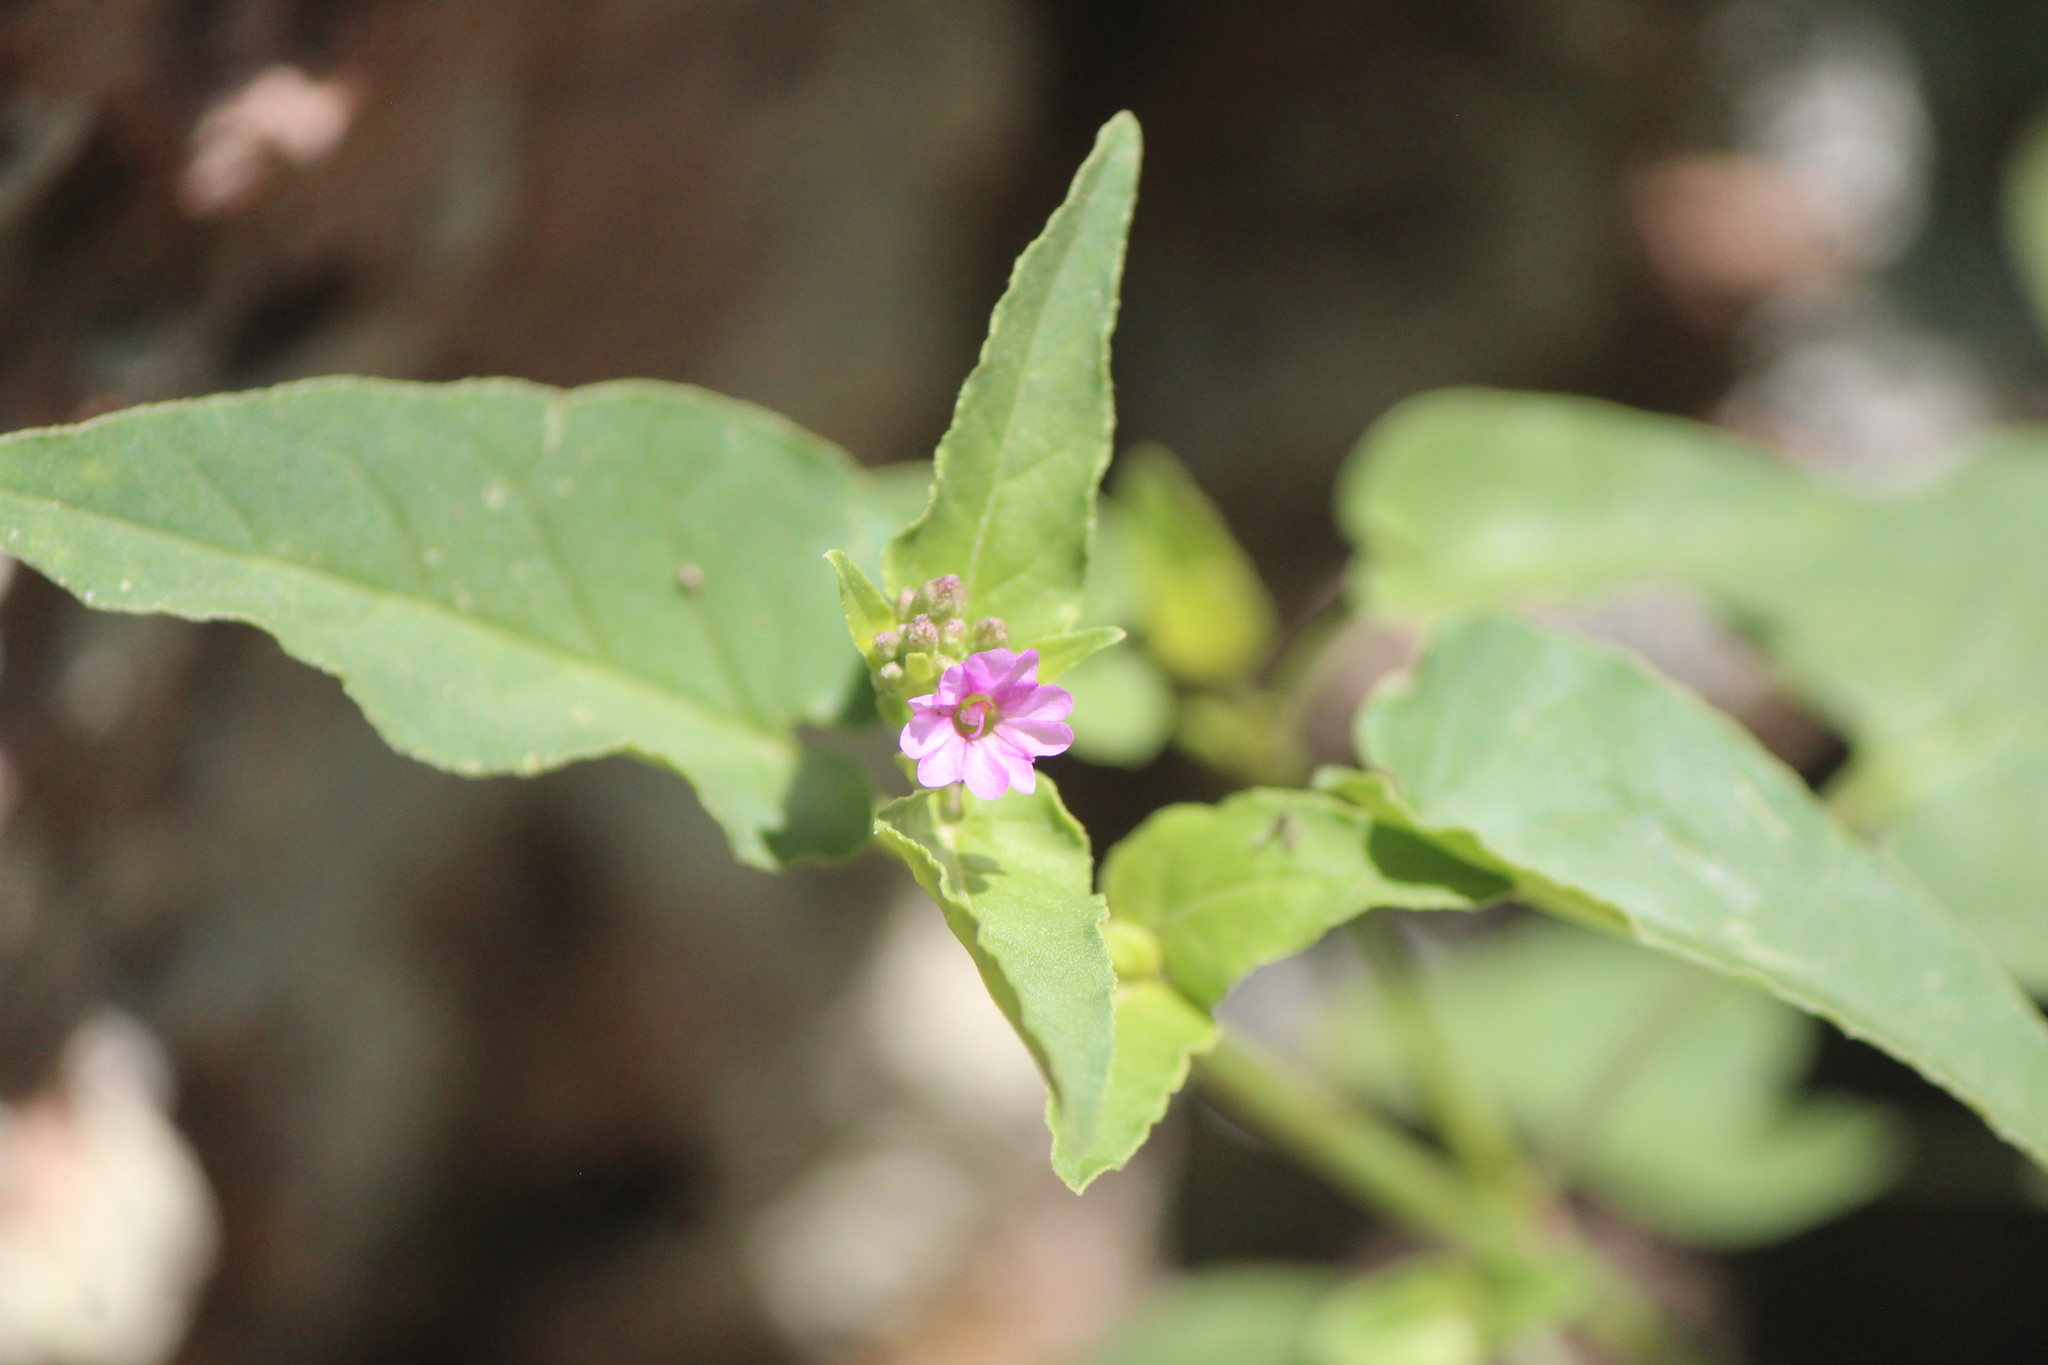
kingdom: Plantae
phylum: Tracheophyta
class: Magnoliopsida
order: Caryophyllales
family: Nyctaginaceae
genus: Mirabilis
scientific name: Mirabilis viscosa
